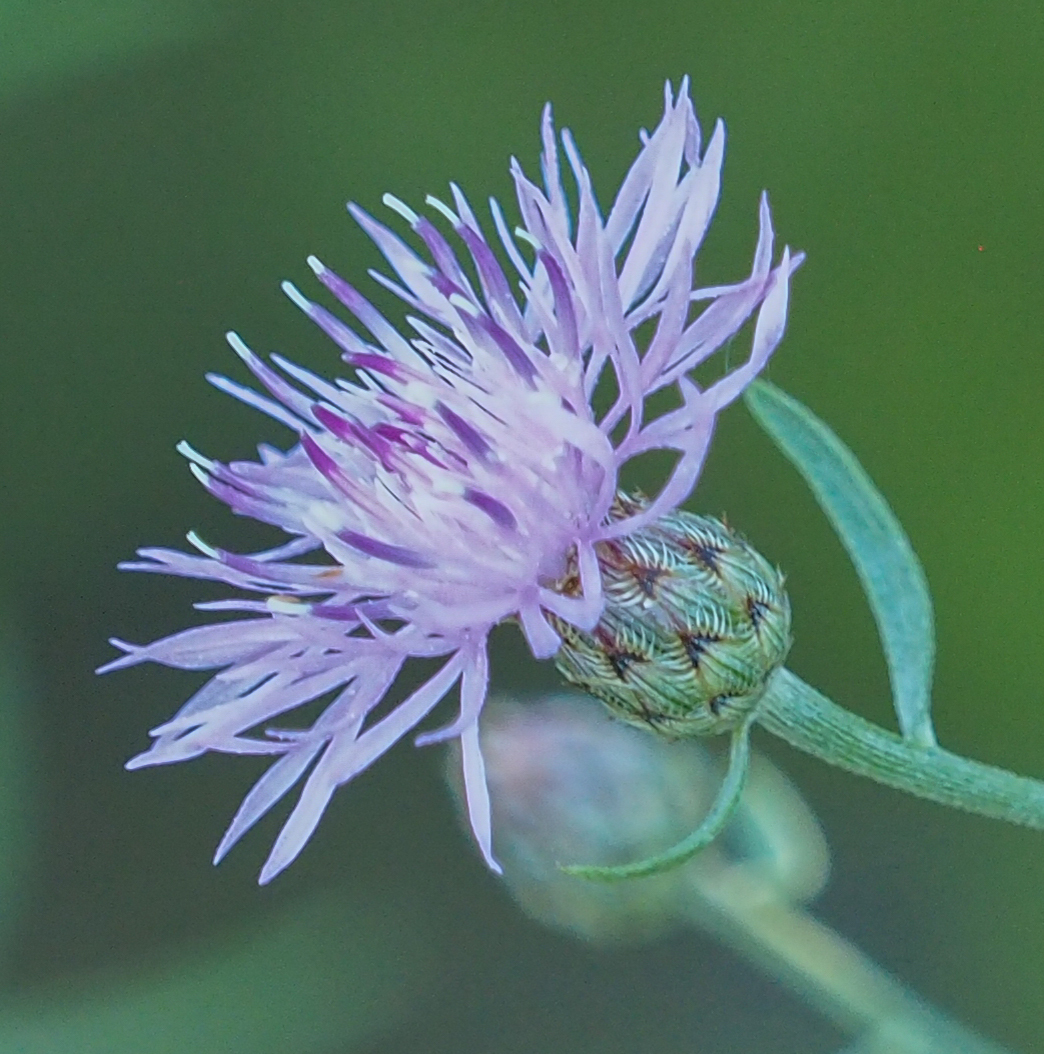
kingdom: Plantae
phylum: Tracheophyta
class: Magnoliopsida
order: Asterales
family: Asteraceae
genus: Centaurea
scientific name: Centaurea stoebe
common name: Spotted knapweed
